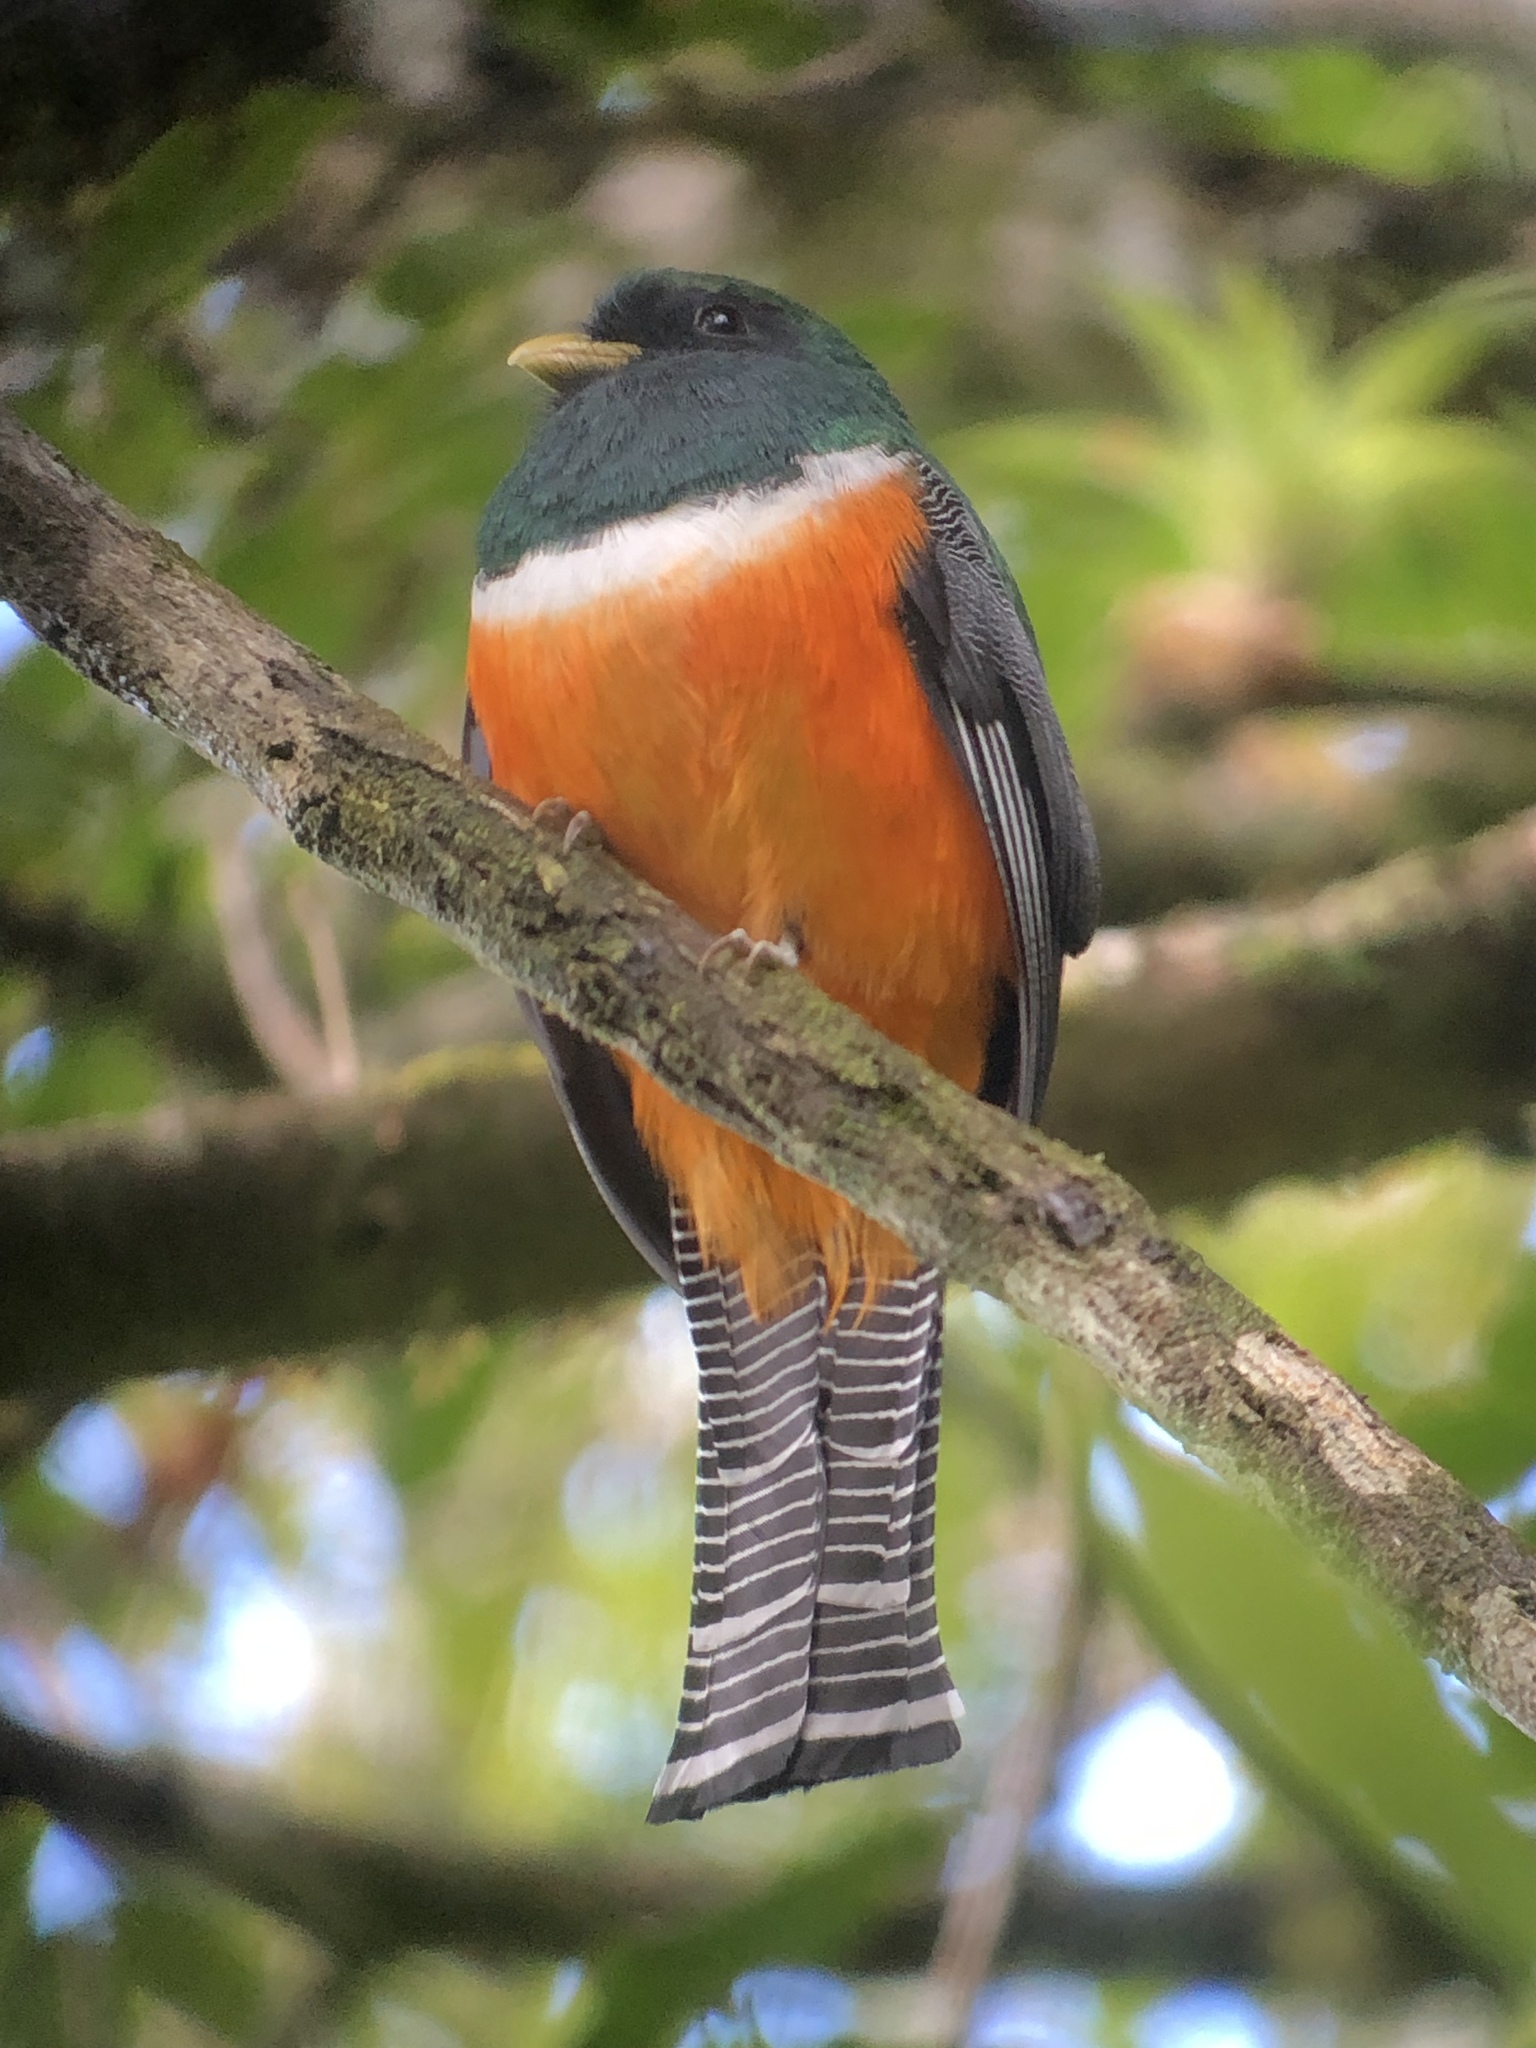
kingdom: Animalia
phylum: Chordata
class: Aves
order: Trogoniformes
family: Trogonidae
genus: Trogon
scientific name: Trogon collaris
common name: Collared trogon
